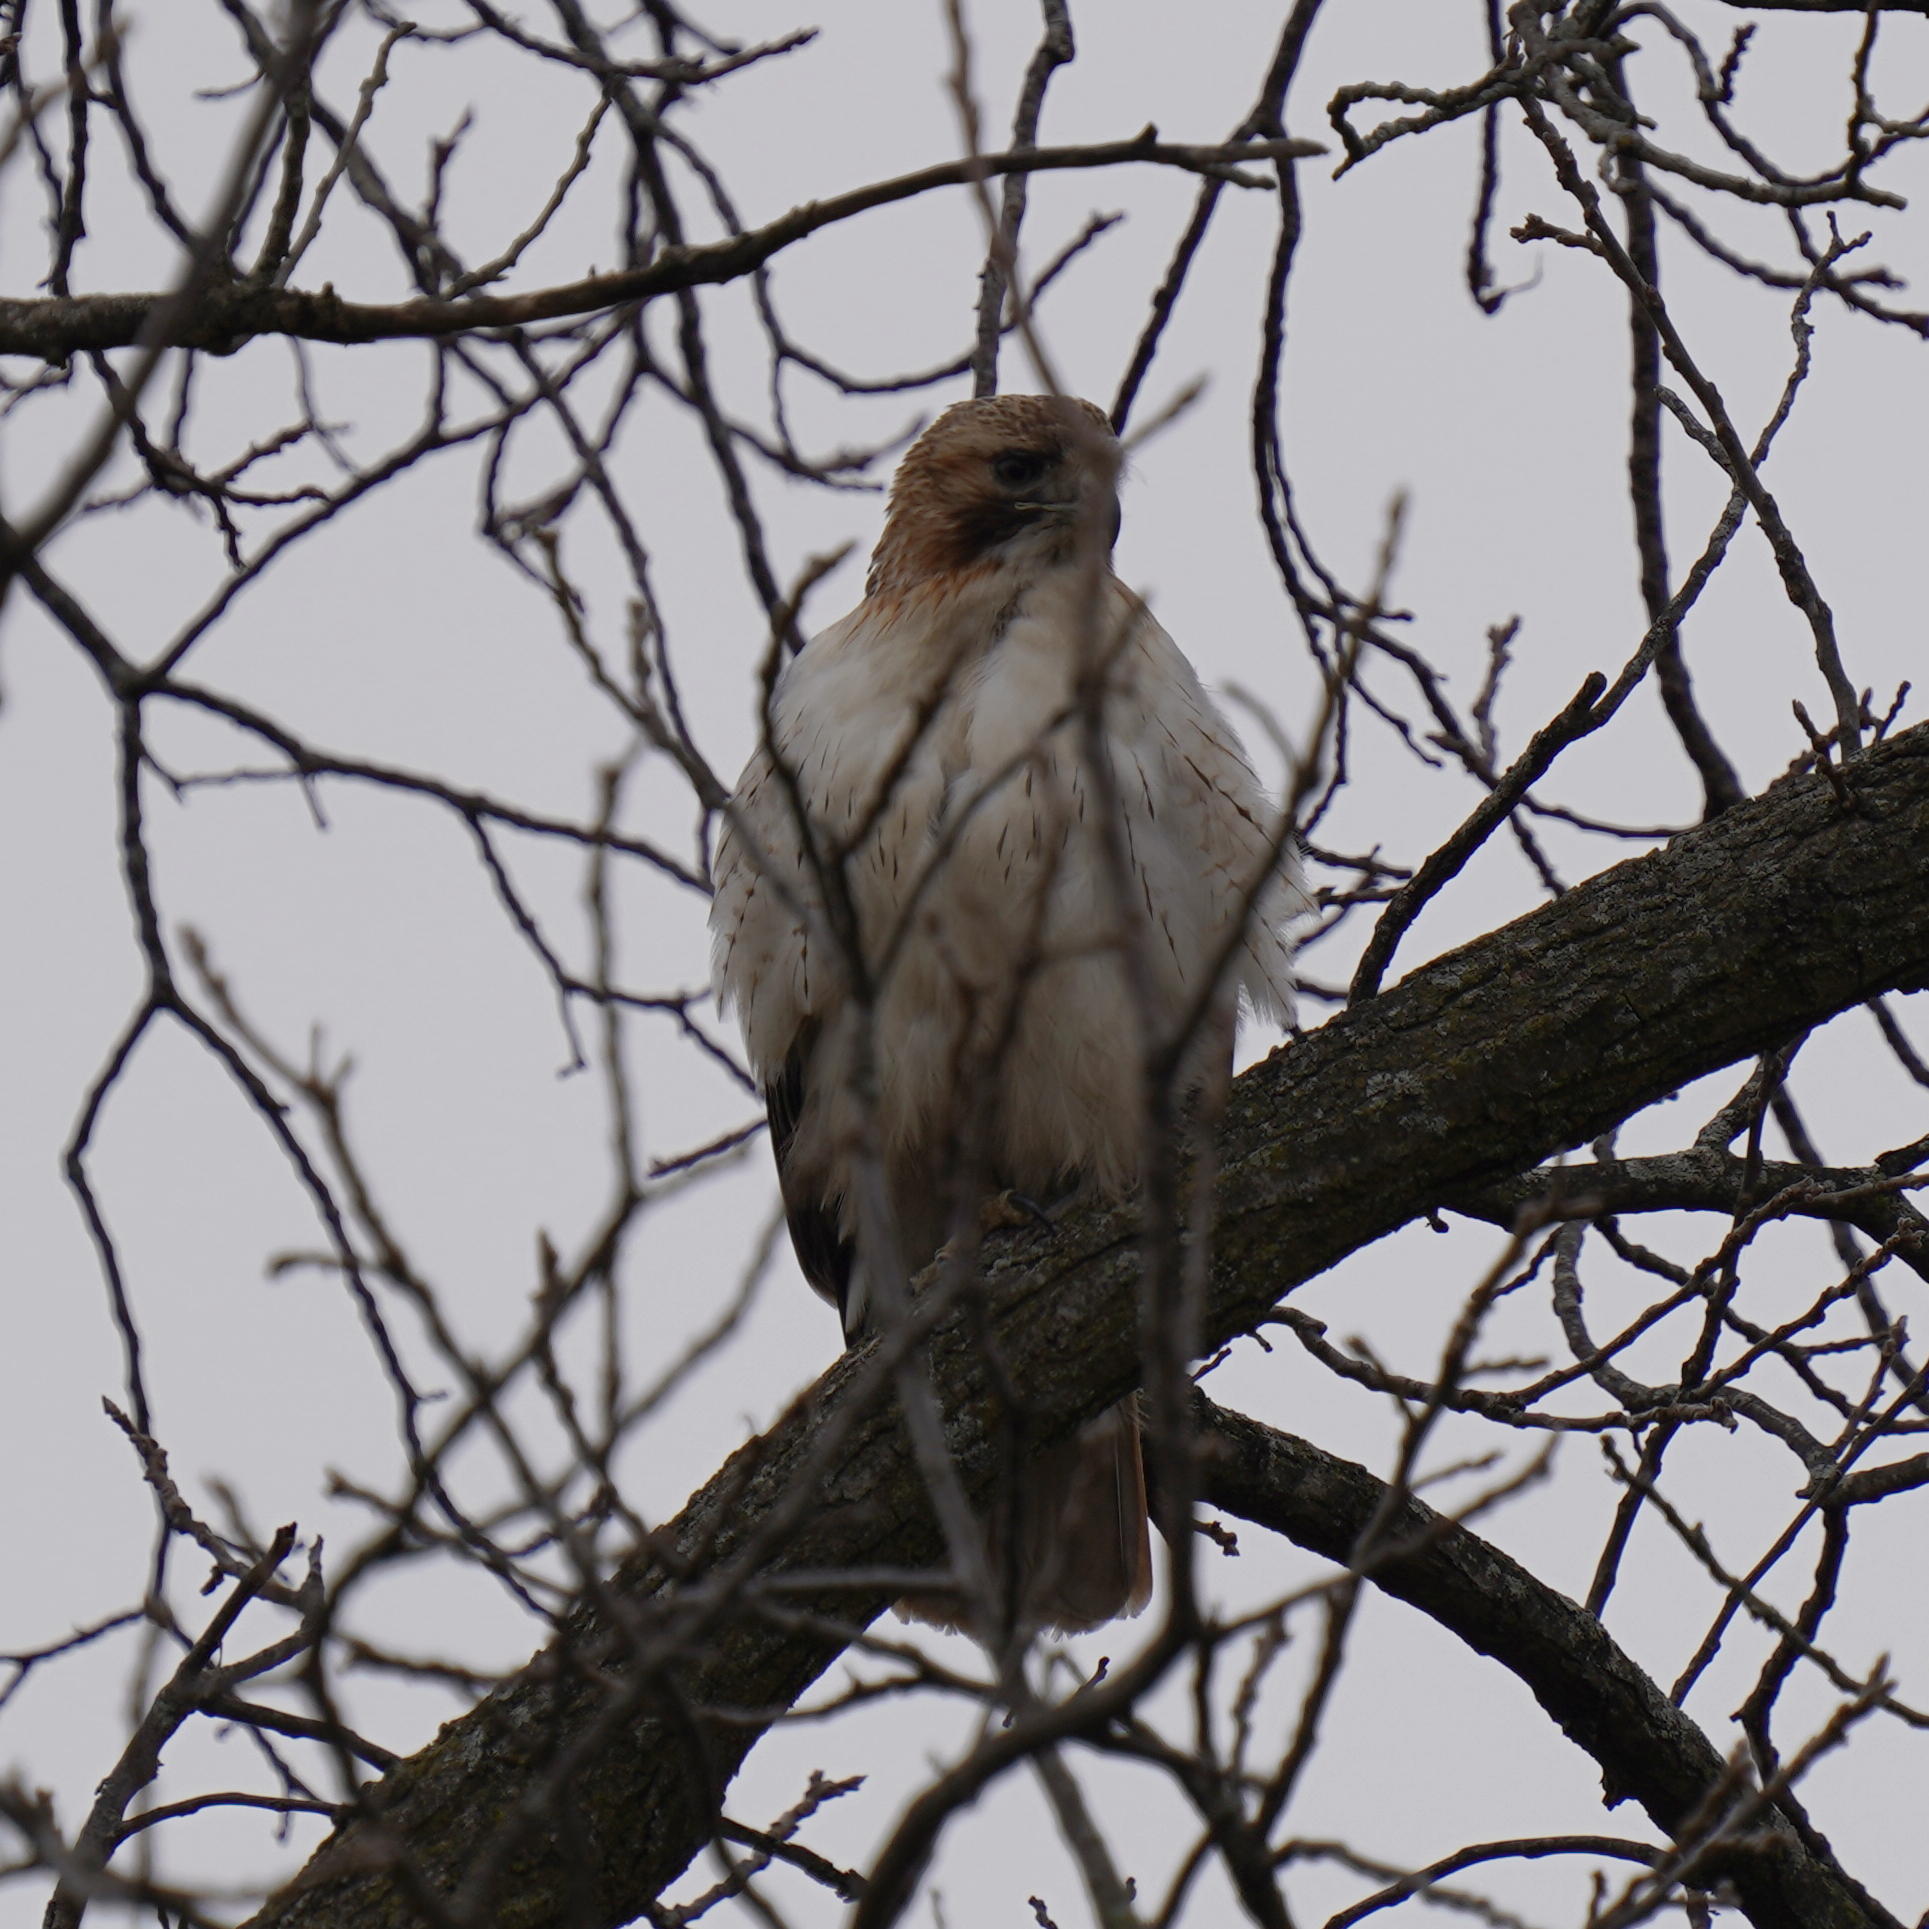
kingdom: Animalia
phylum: Chordata
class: Aves
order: Accipitriformes
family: Accipitridae
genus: Buteo
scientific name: Buteo jamaicensis
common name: Red-tailed hawk
